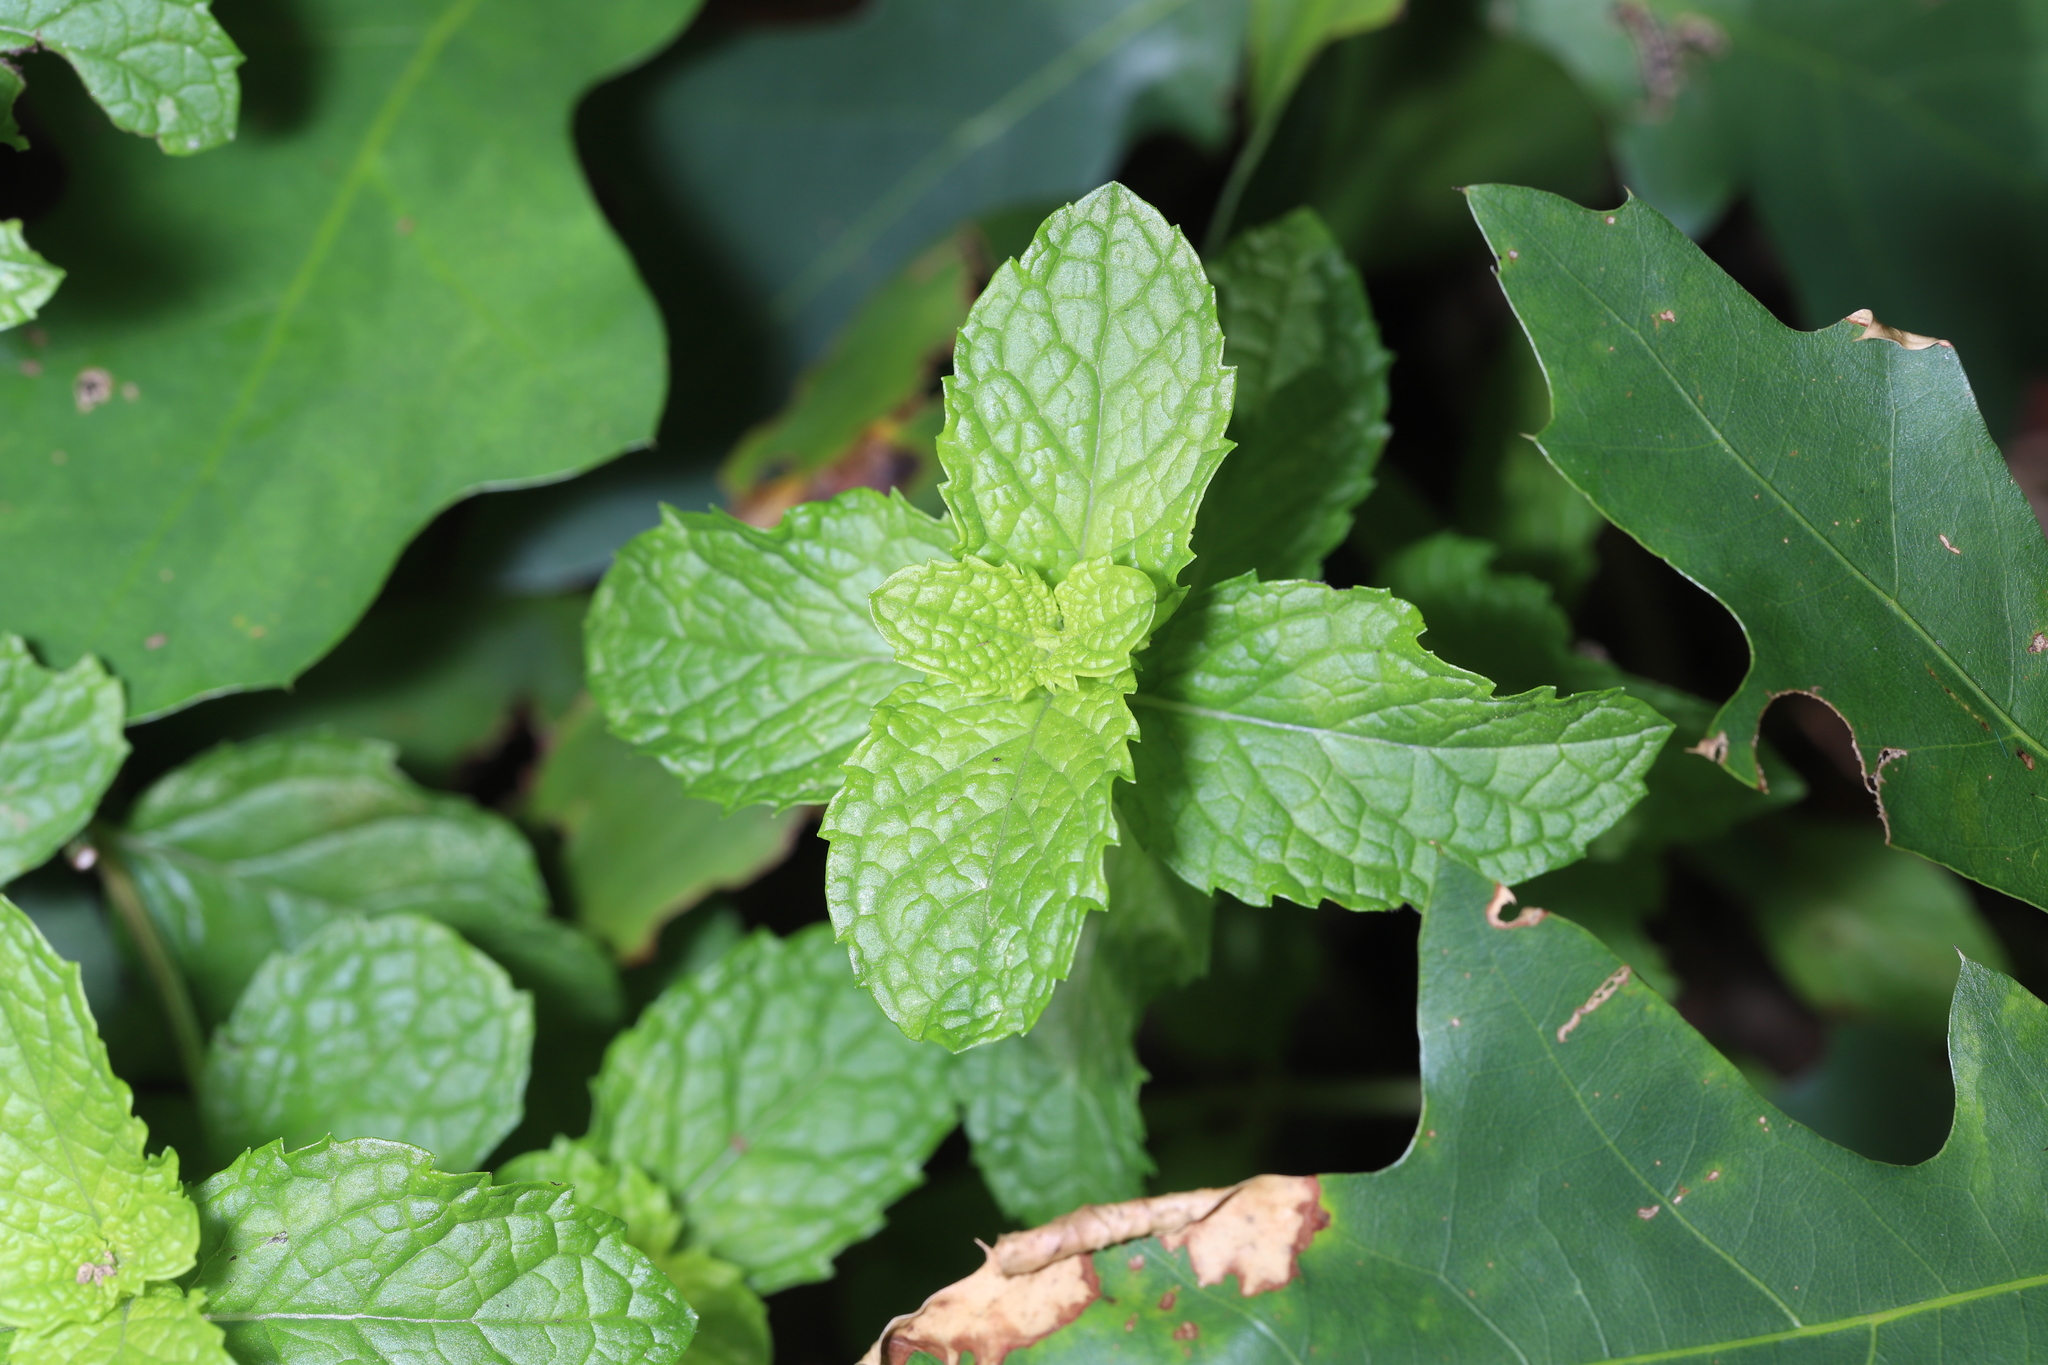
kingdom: Plantae
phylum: Tracheophyta
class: Magnoliopsida
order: Lamiales
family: Lamiaceae
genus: Mentha
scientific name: Mentha spicata
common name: Spearmint
